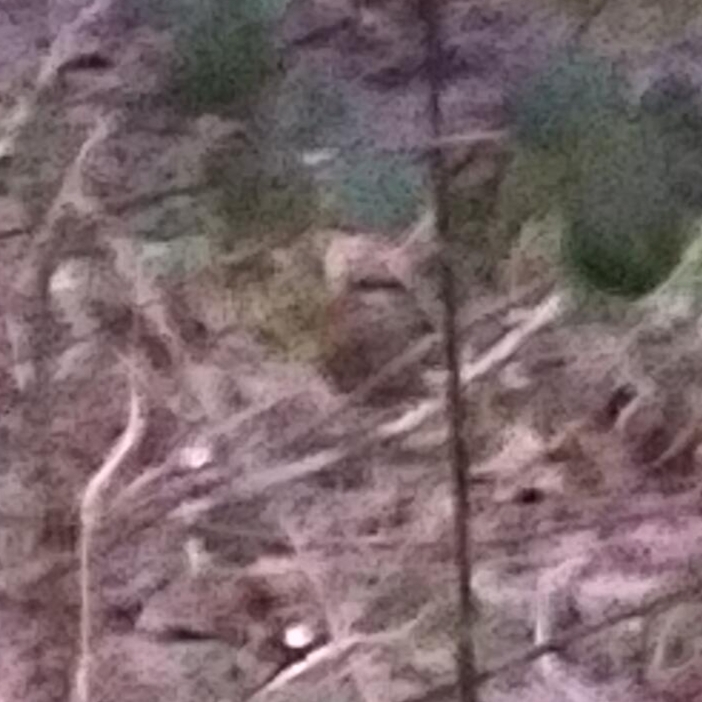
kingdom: Animalia
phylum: Chordata
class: Aves
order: Passeriformes
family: Troglodytidae
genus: Troglodytes
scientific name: Troglodytes troglodytes
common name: Eurasian wren
